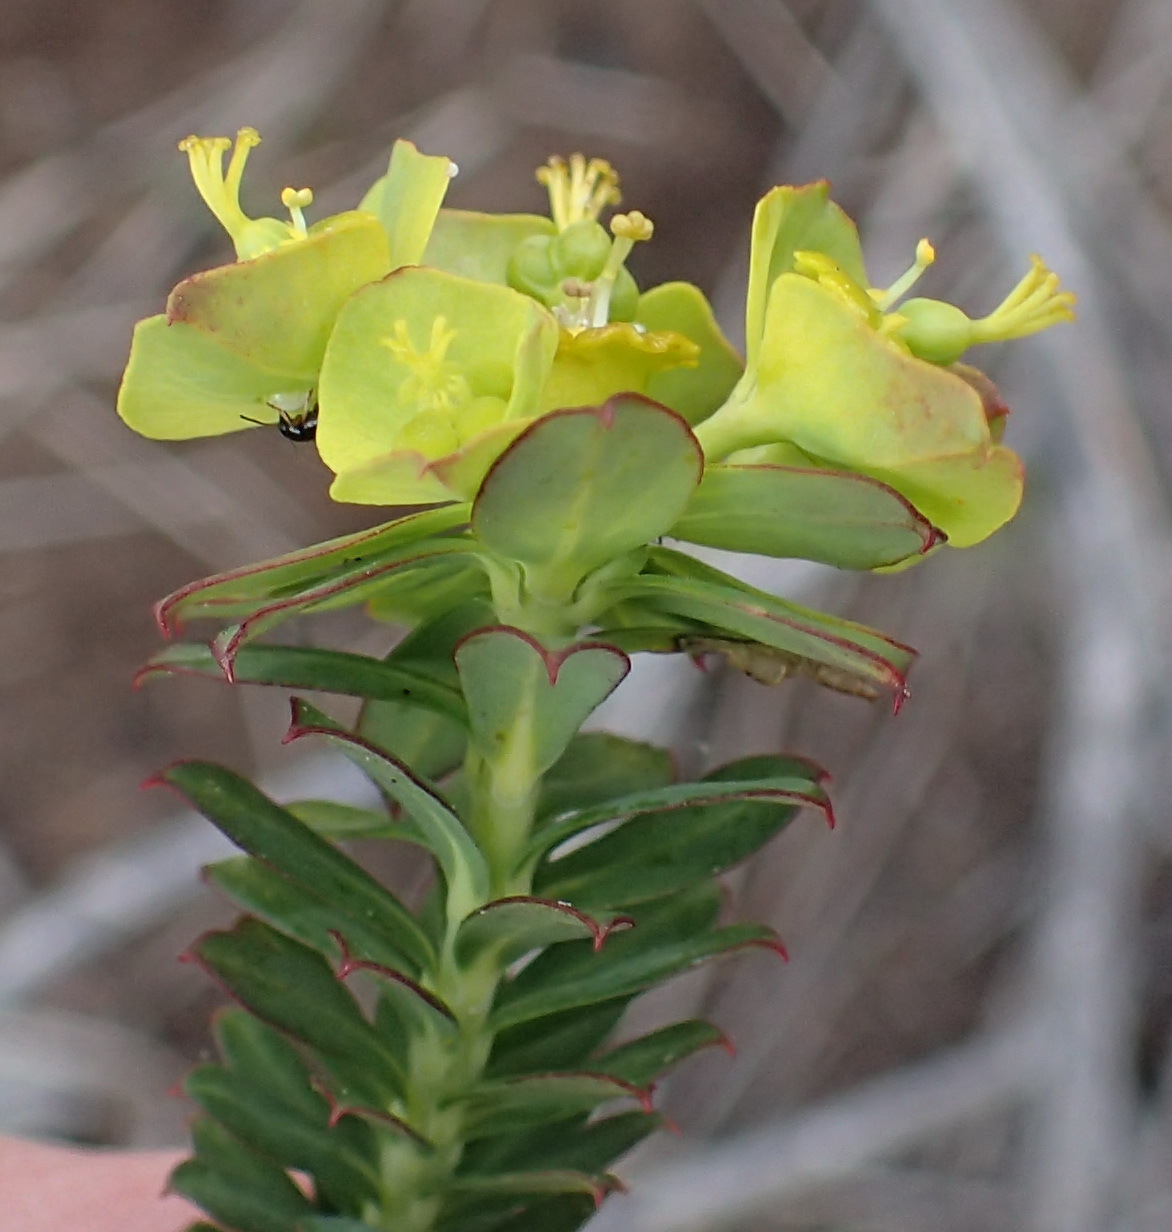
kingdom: Plantae
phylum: Tracheophyta
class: Magnoliopsida
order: Malpighiales
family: Euphorbiaceae
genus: Euphorbia
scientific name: Euphorbia genistoides
